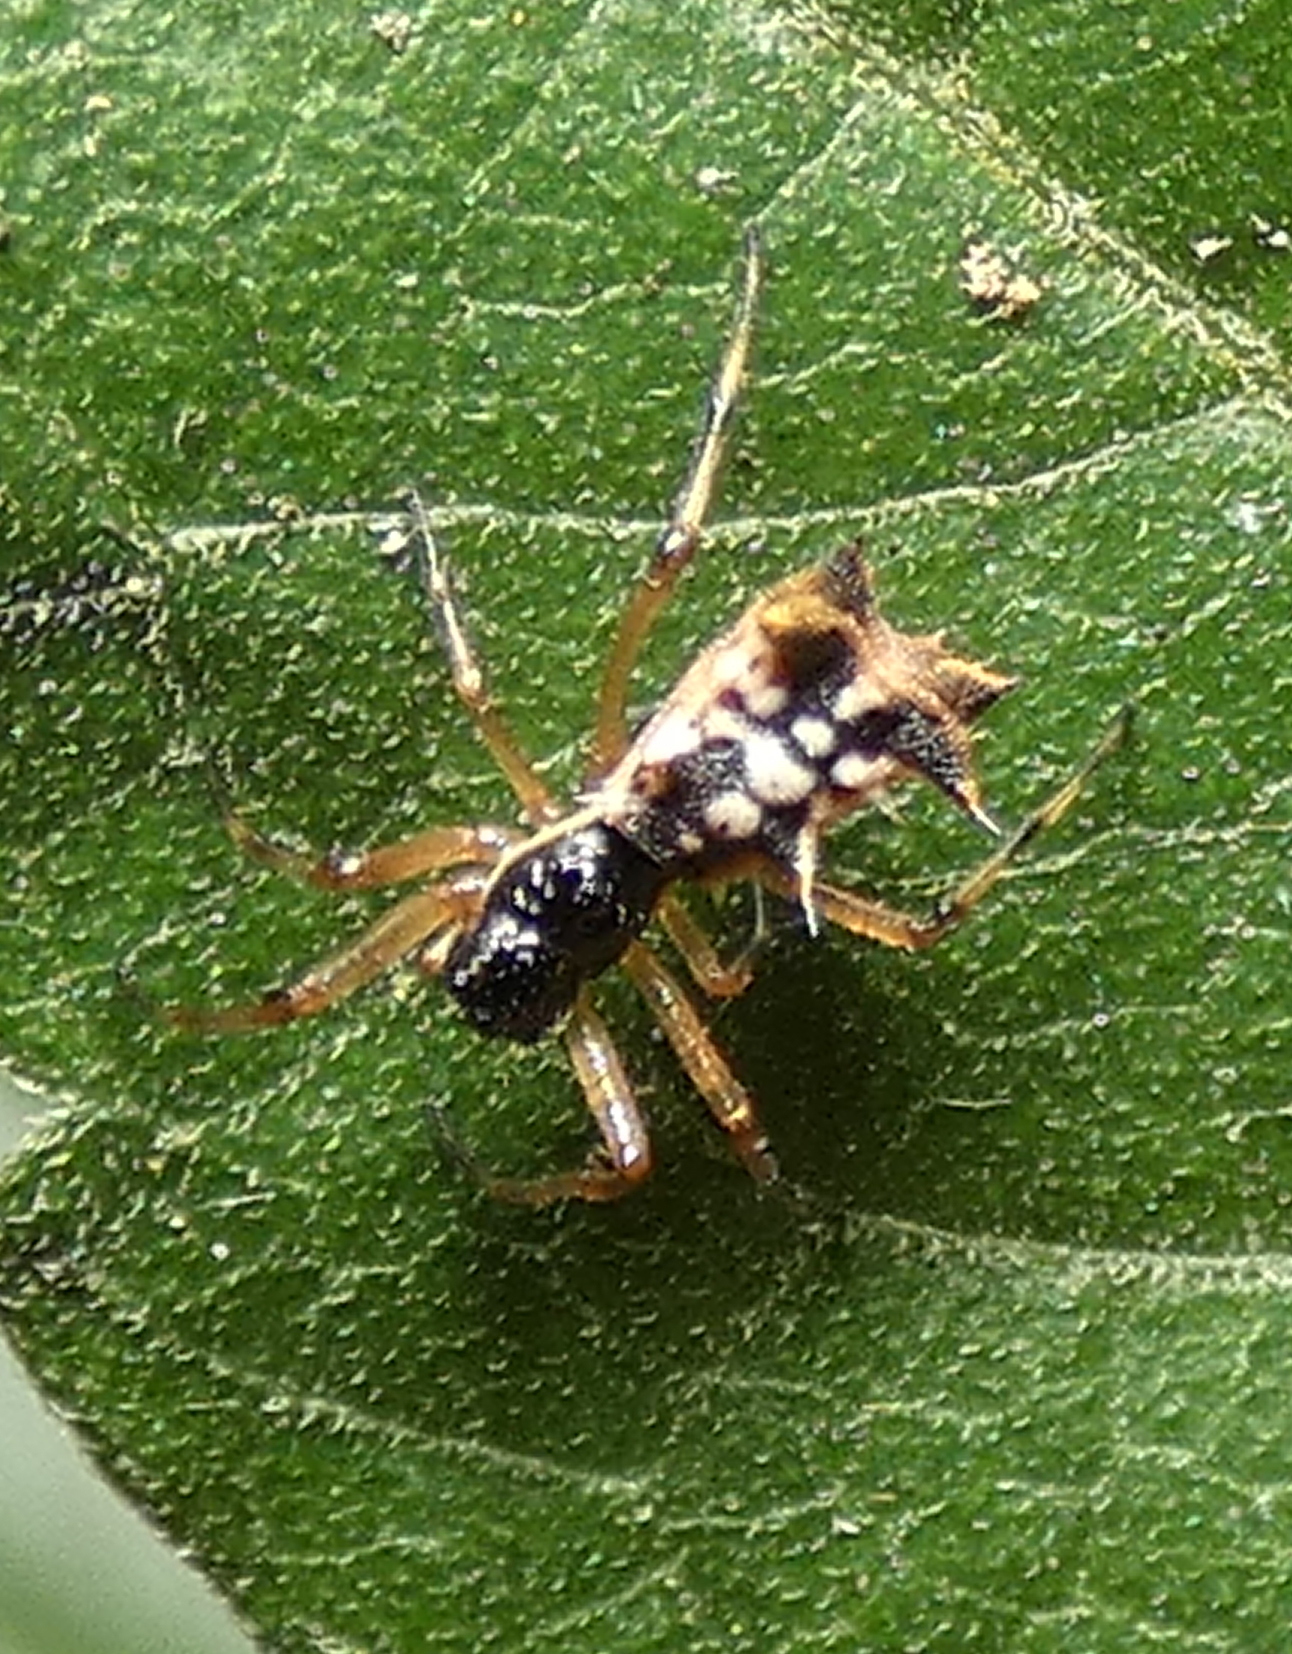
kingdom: Animalia
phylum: Arthropoda
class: Arachnida
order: Araneae
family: Araneidae
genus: Micrathena
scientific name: Micrathena picta
